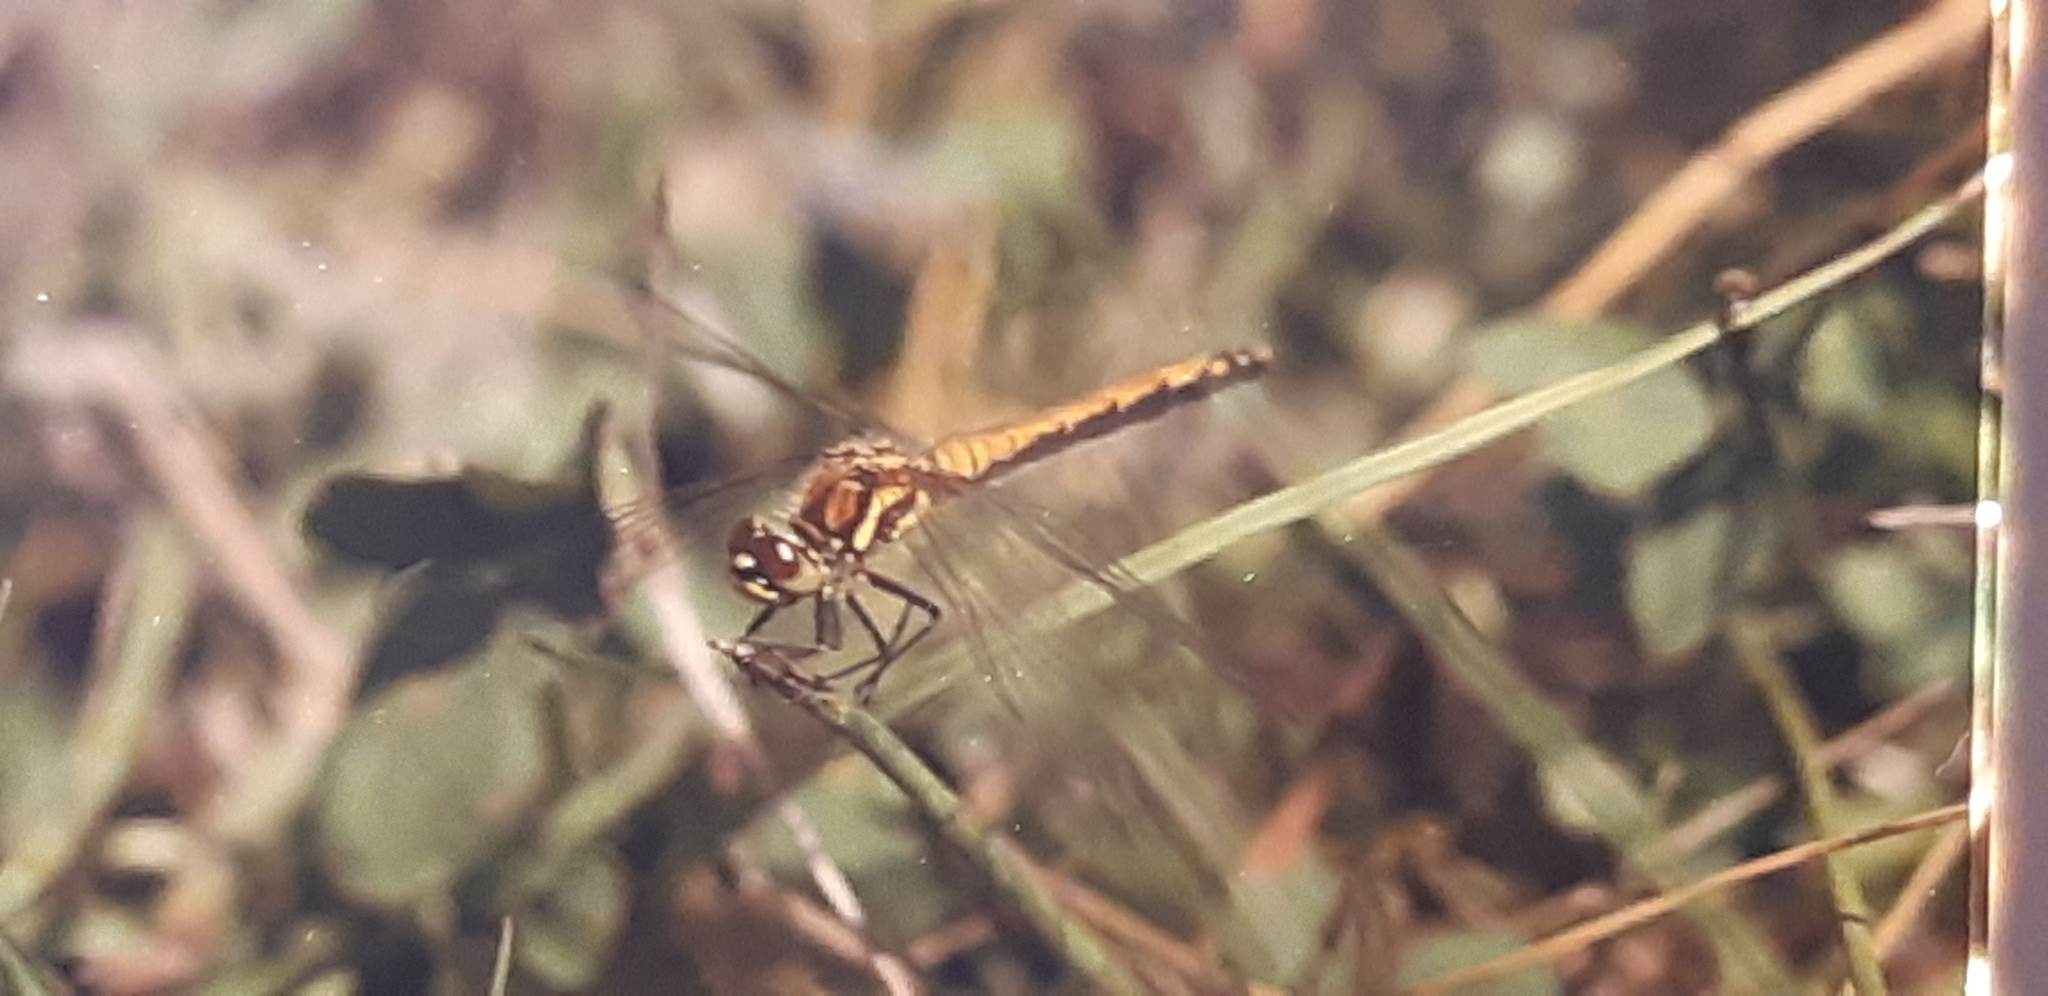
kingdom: Animalia
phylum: Arthropoda
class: Insecta
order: Odonata
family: Libellulidae
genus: Sympetrum
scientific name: Sympetrum danae
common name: Black darter
